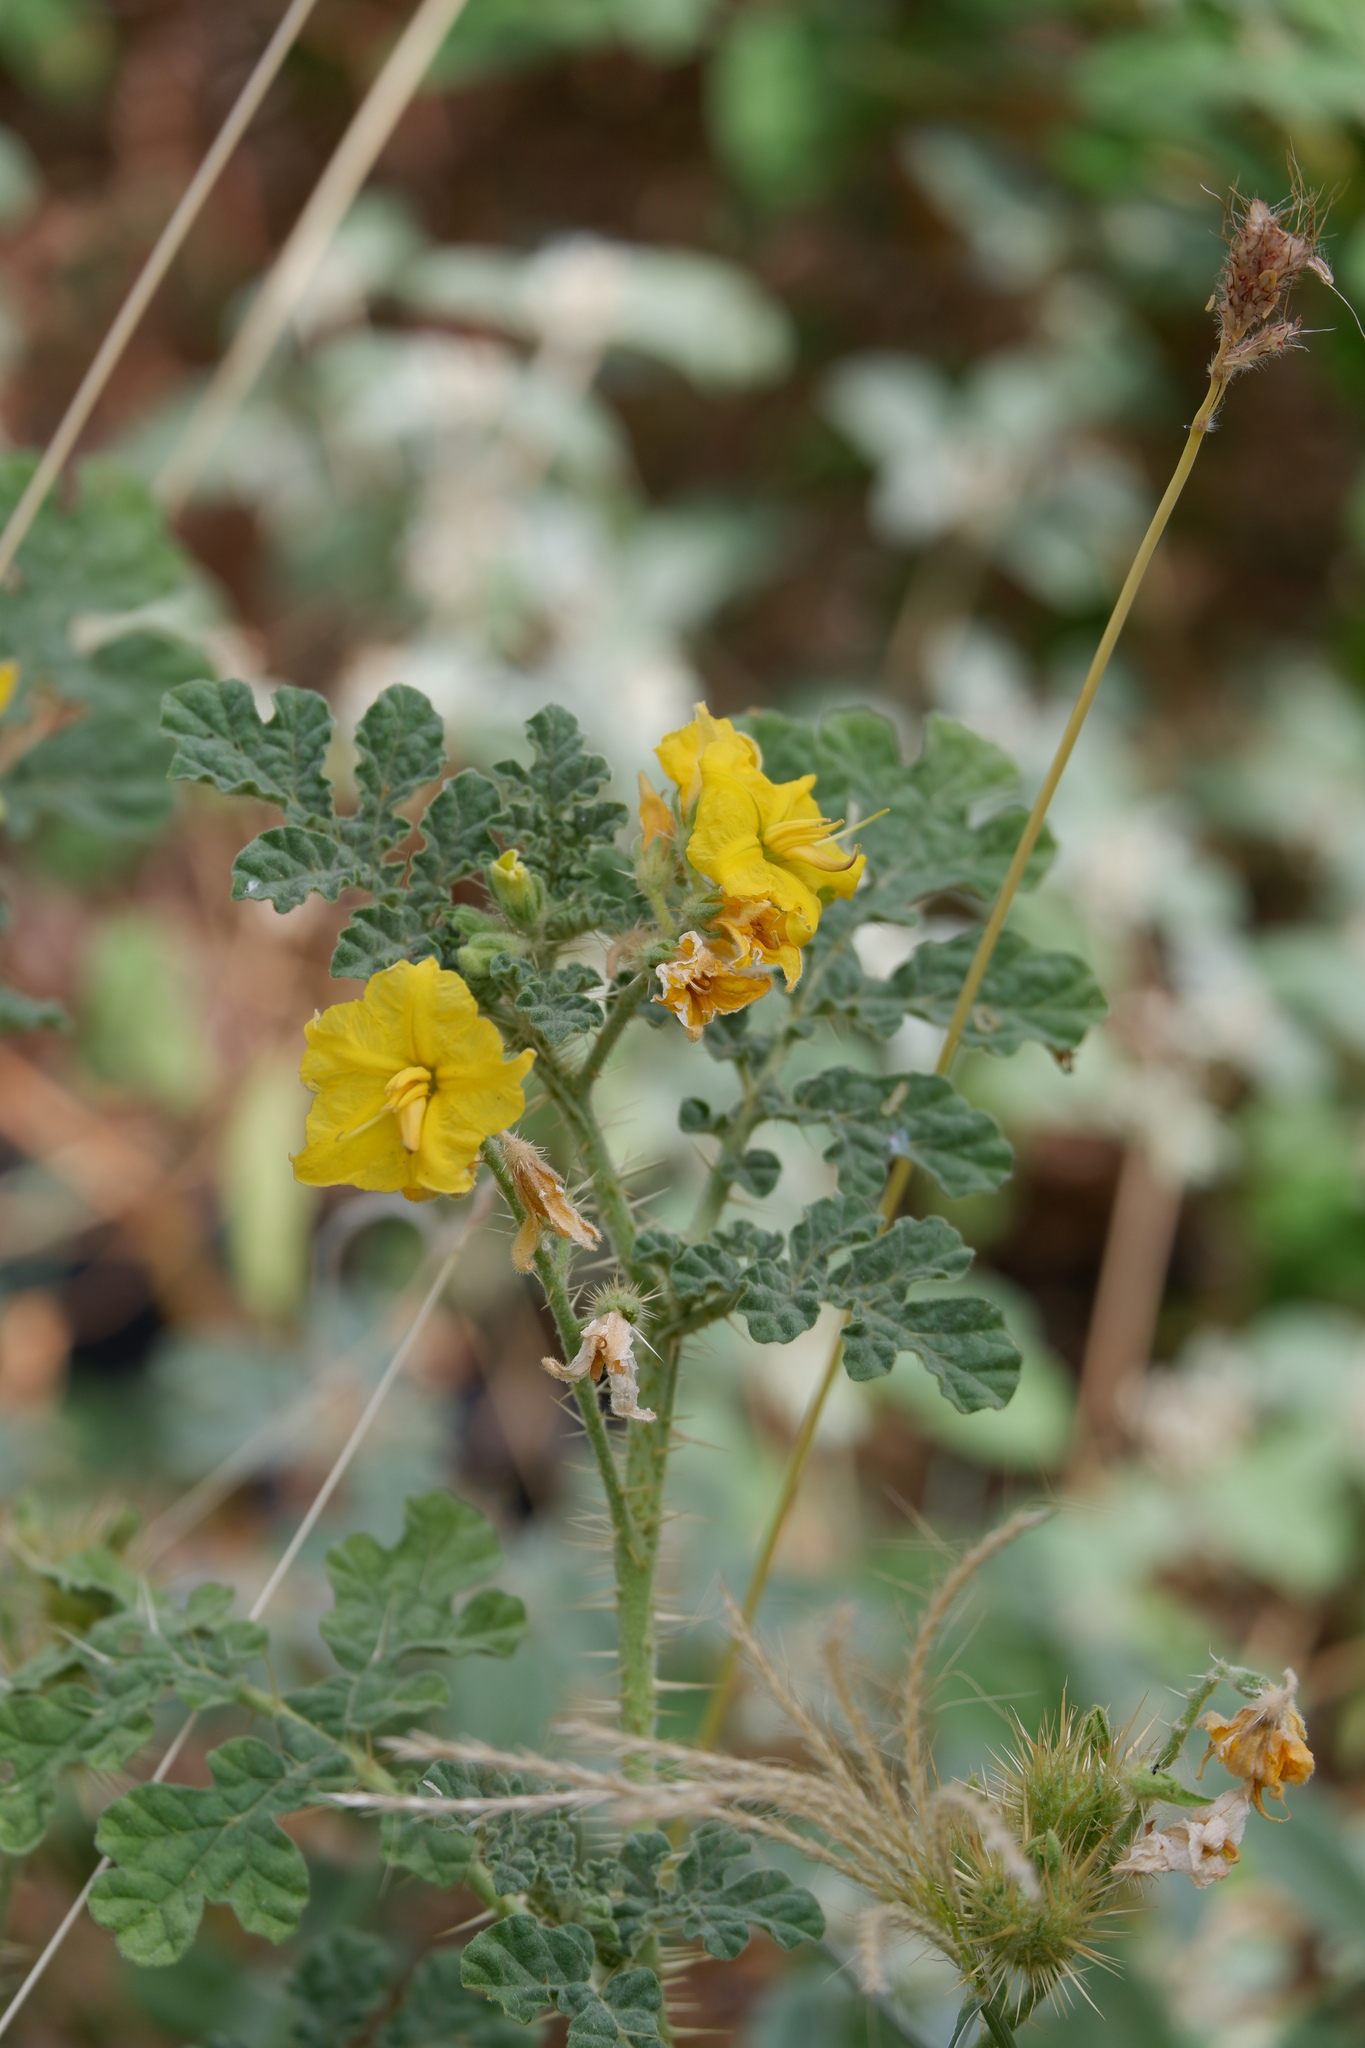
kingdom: Plantae
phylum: Tracheophyta
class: Magnoliopsida
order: Solanales
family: Solanaceae
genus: Solanum
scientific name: Solanum angustifolium
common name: Buffalobur nightshade
